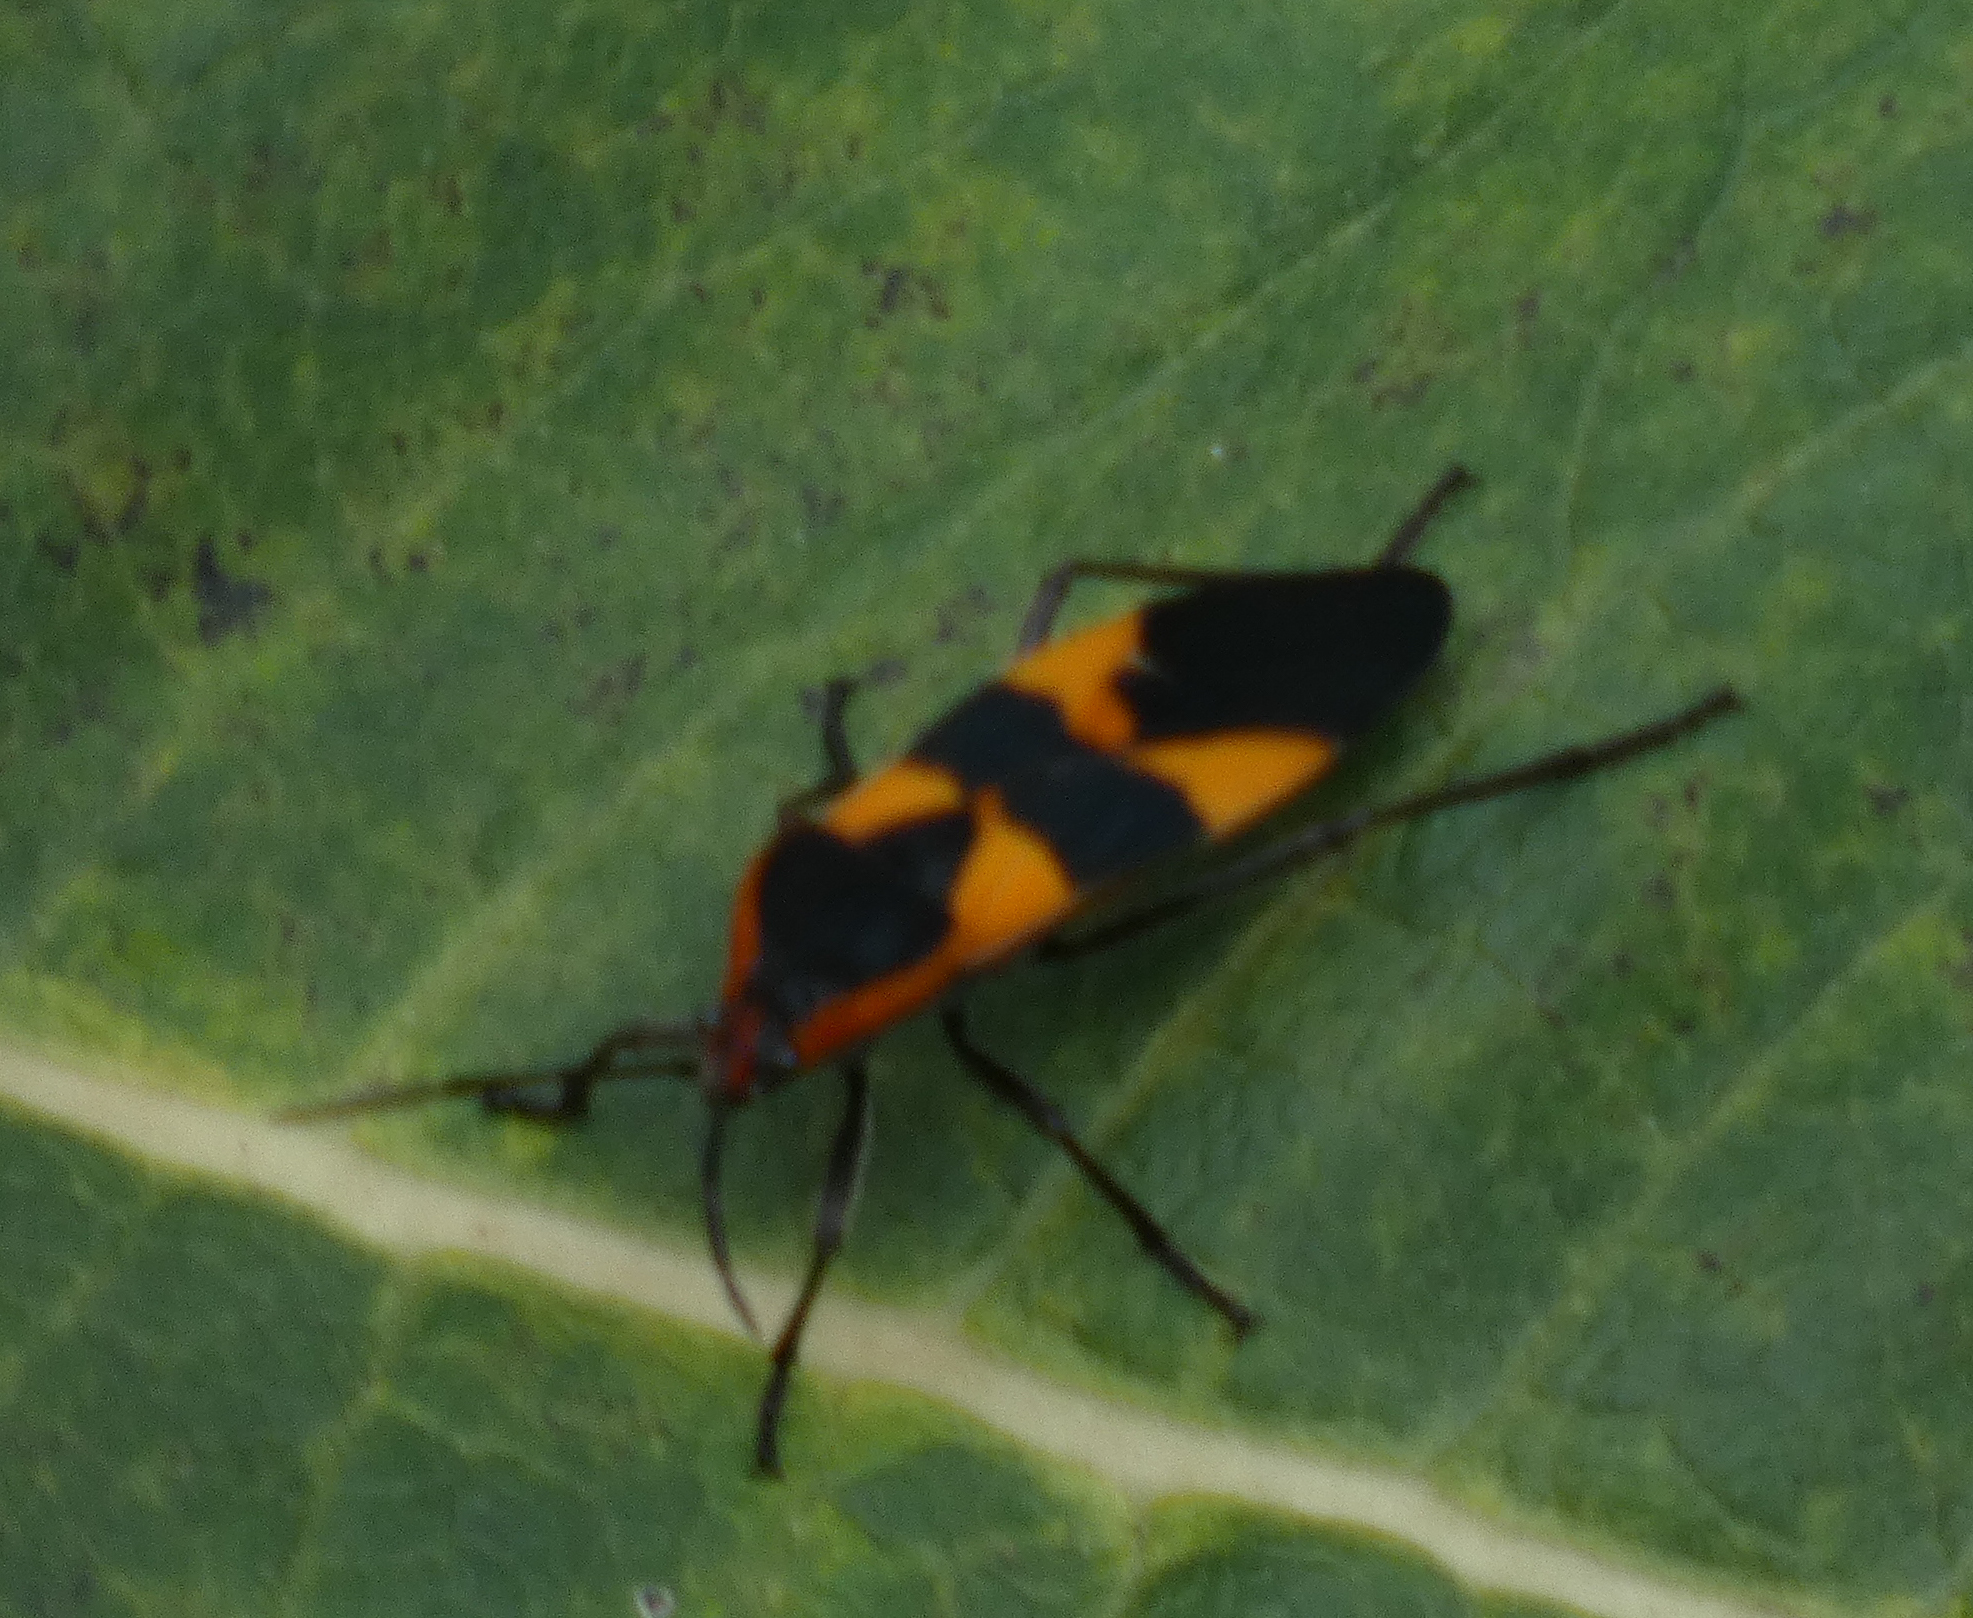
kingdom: Animalia
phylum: Arthropoda
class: Insecta
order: Hemiptera
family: Lygaeidae
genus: Oncopeltus
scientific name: Oncopeltus fasciatus
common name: Large milkweed bug
